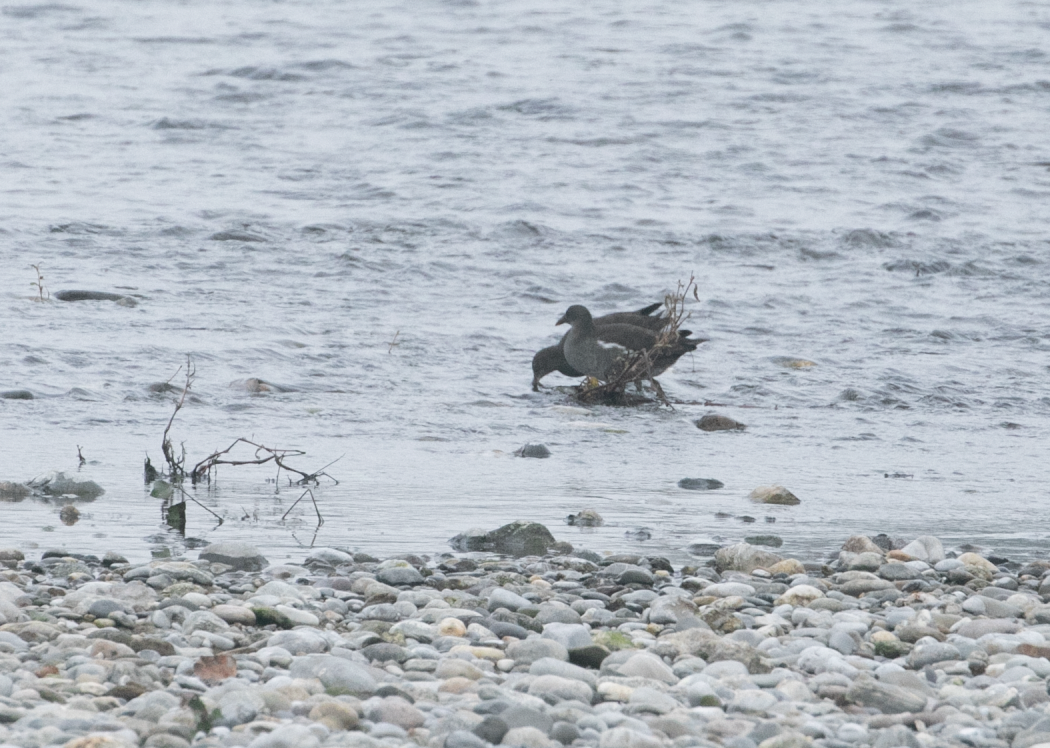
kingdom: Animalia
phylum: Chordata
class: Aves
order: Gruiformes
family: Rallidae
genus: Gallinula
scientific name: Gallinula chloropus
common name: Common moorhen
